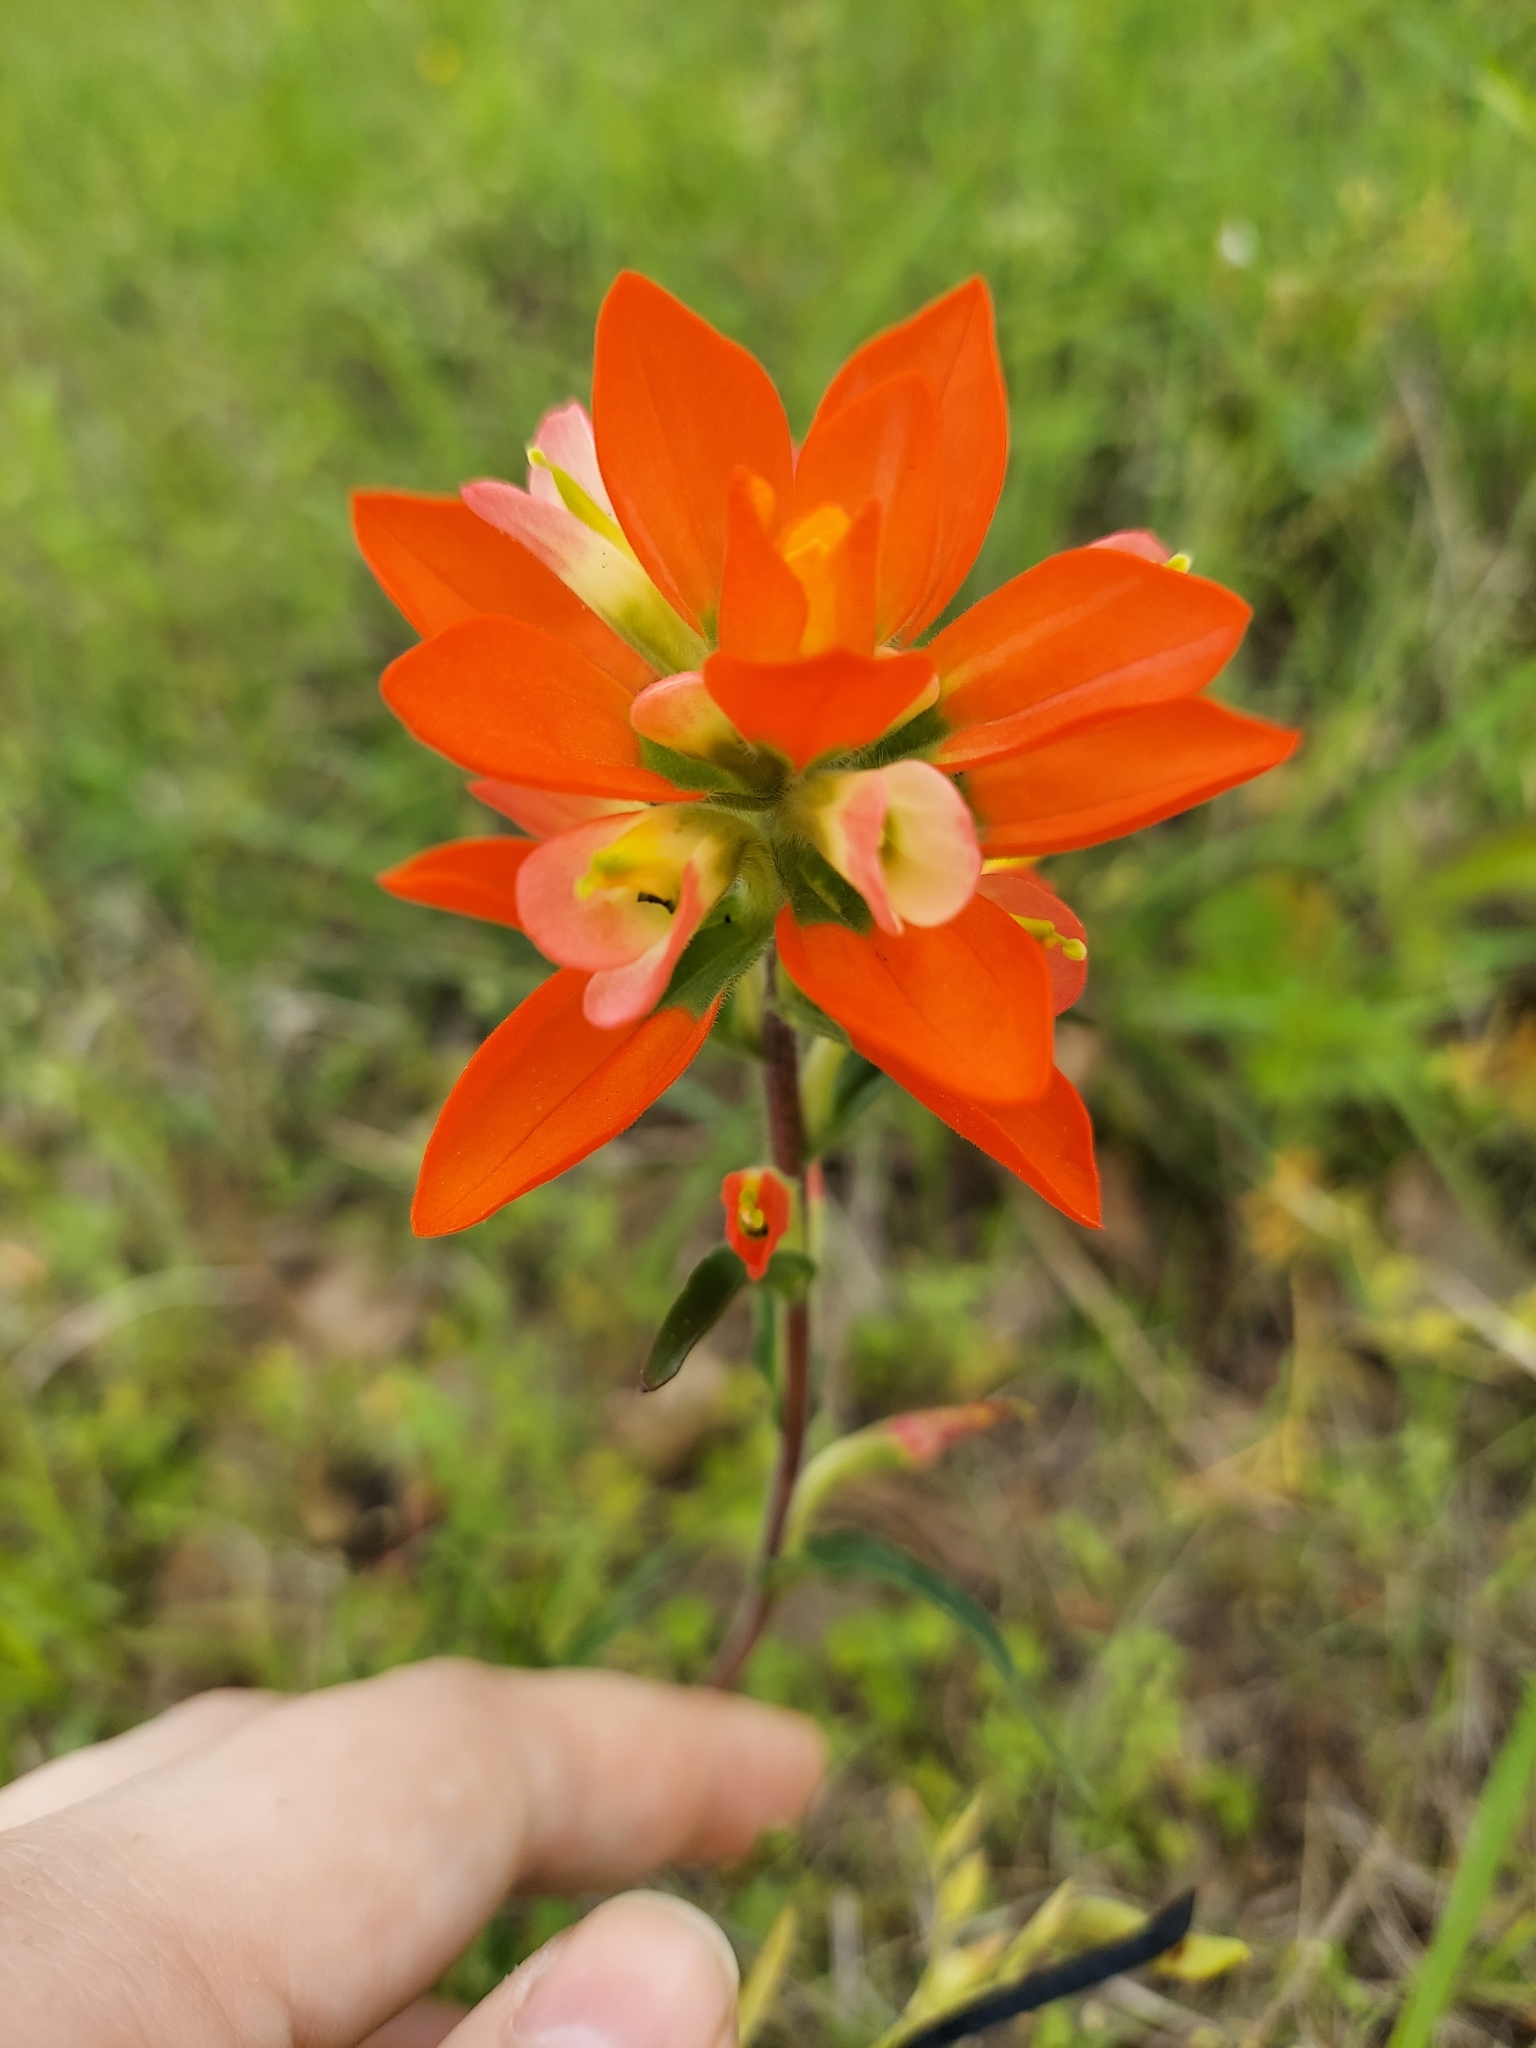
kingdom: Plantae
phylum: Tracheophyta
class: Magnoliopsida
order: Lamiales
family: Orobanchaceae
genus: Castilleja
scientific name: Castilleja indivisa
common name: Texas paintbrush
